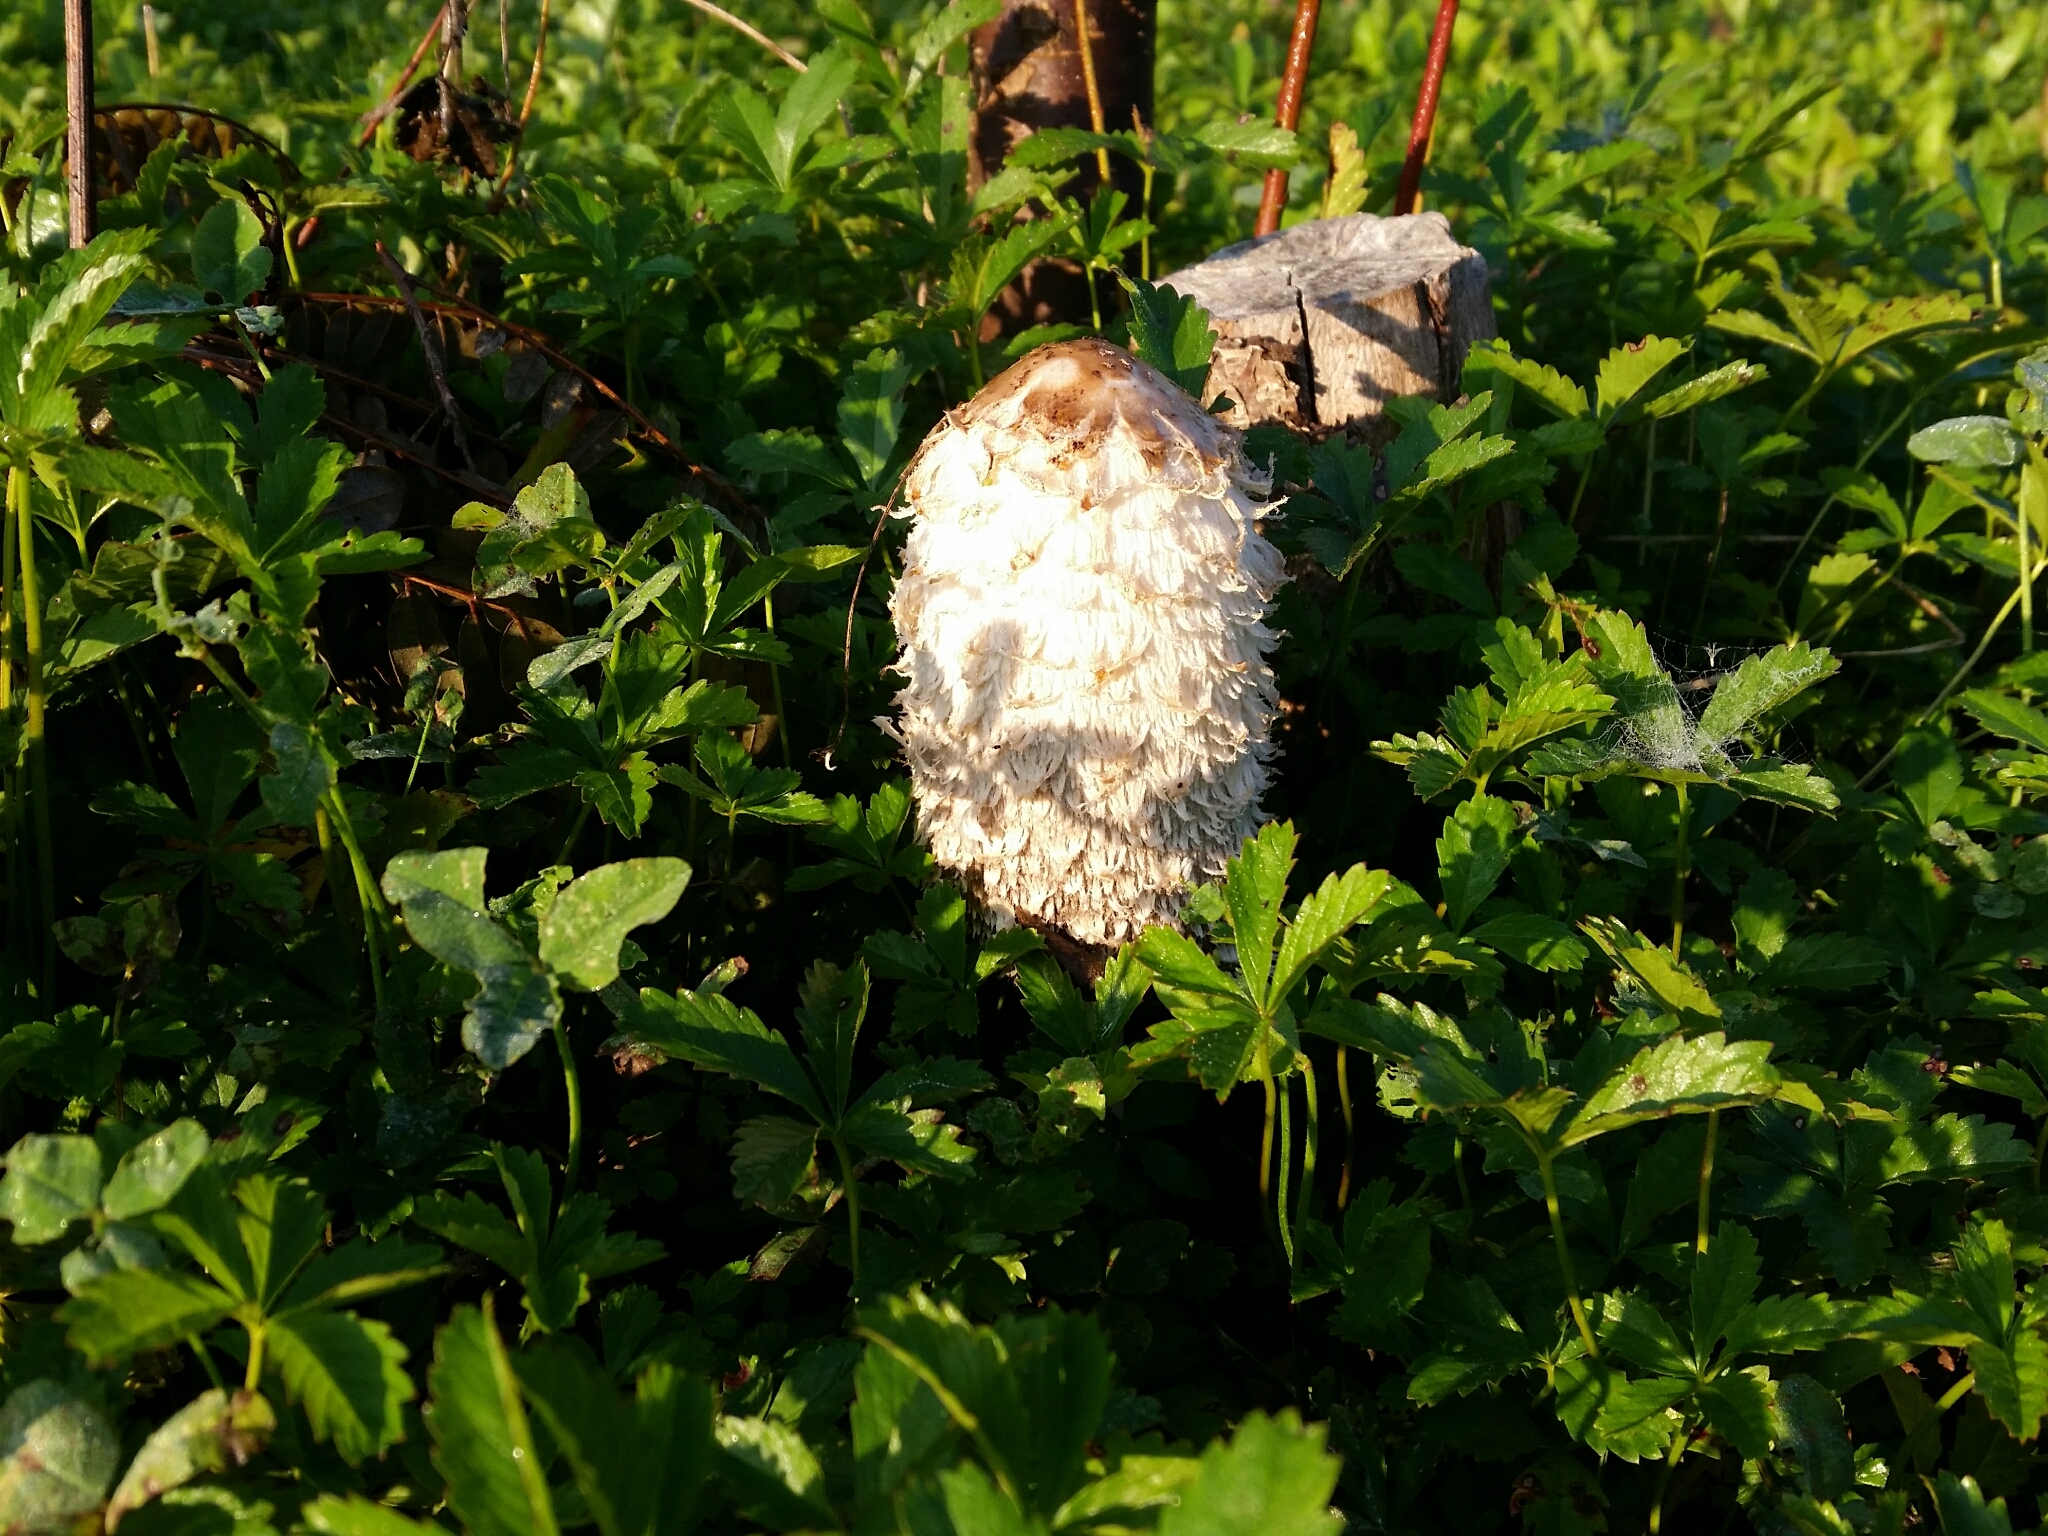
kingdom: Fungi
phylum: Basidiomycota
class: Agaricomycetes
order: Agaricales
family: Agaricaceae
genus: Coprinus
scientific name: Coprinus comatus
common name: Lawyer's wig
